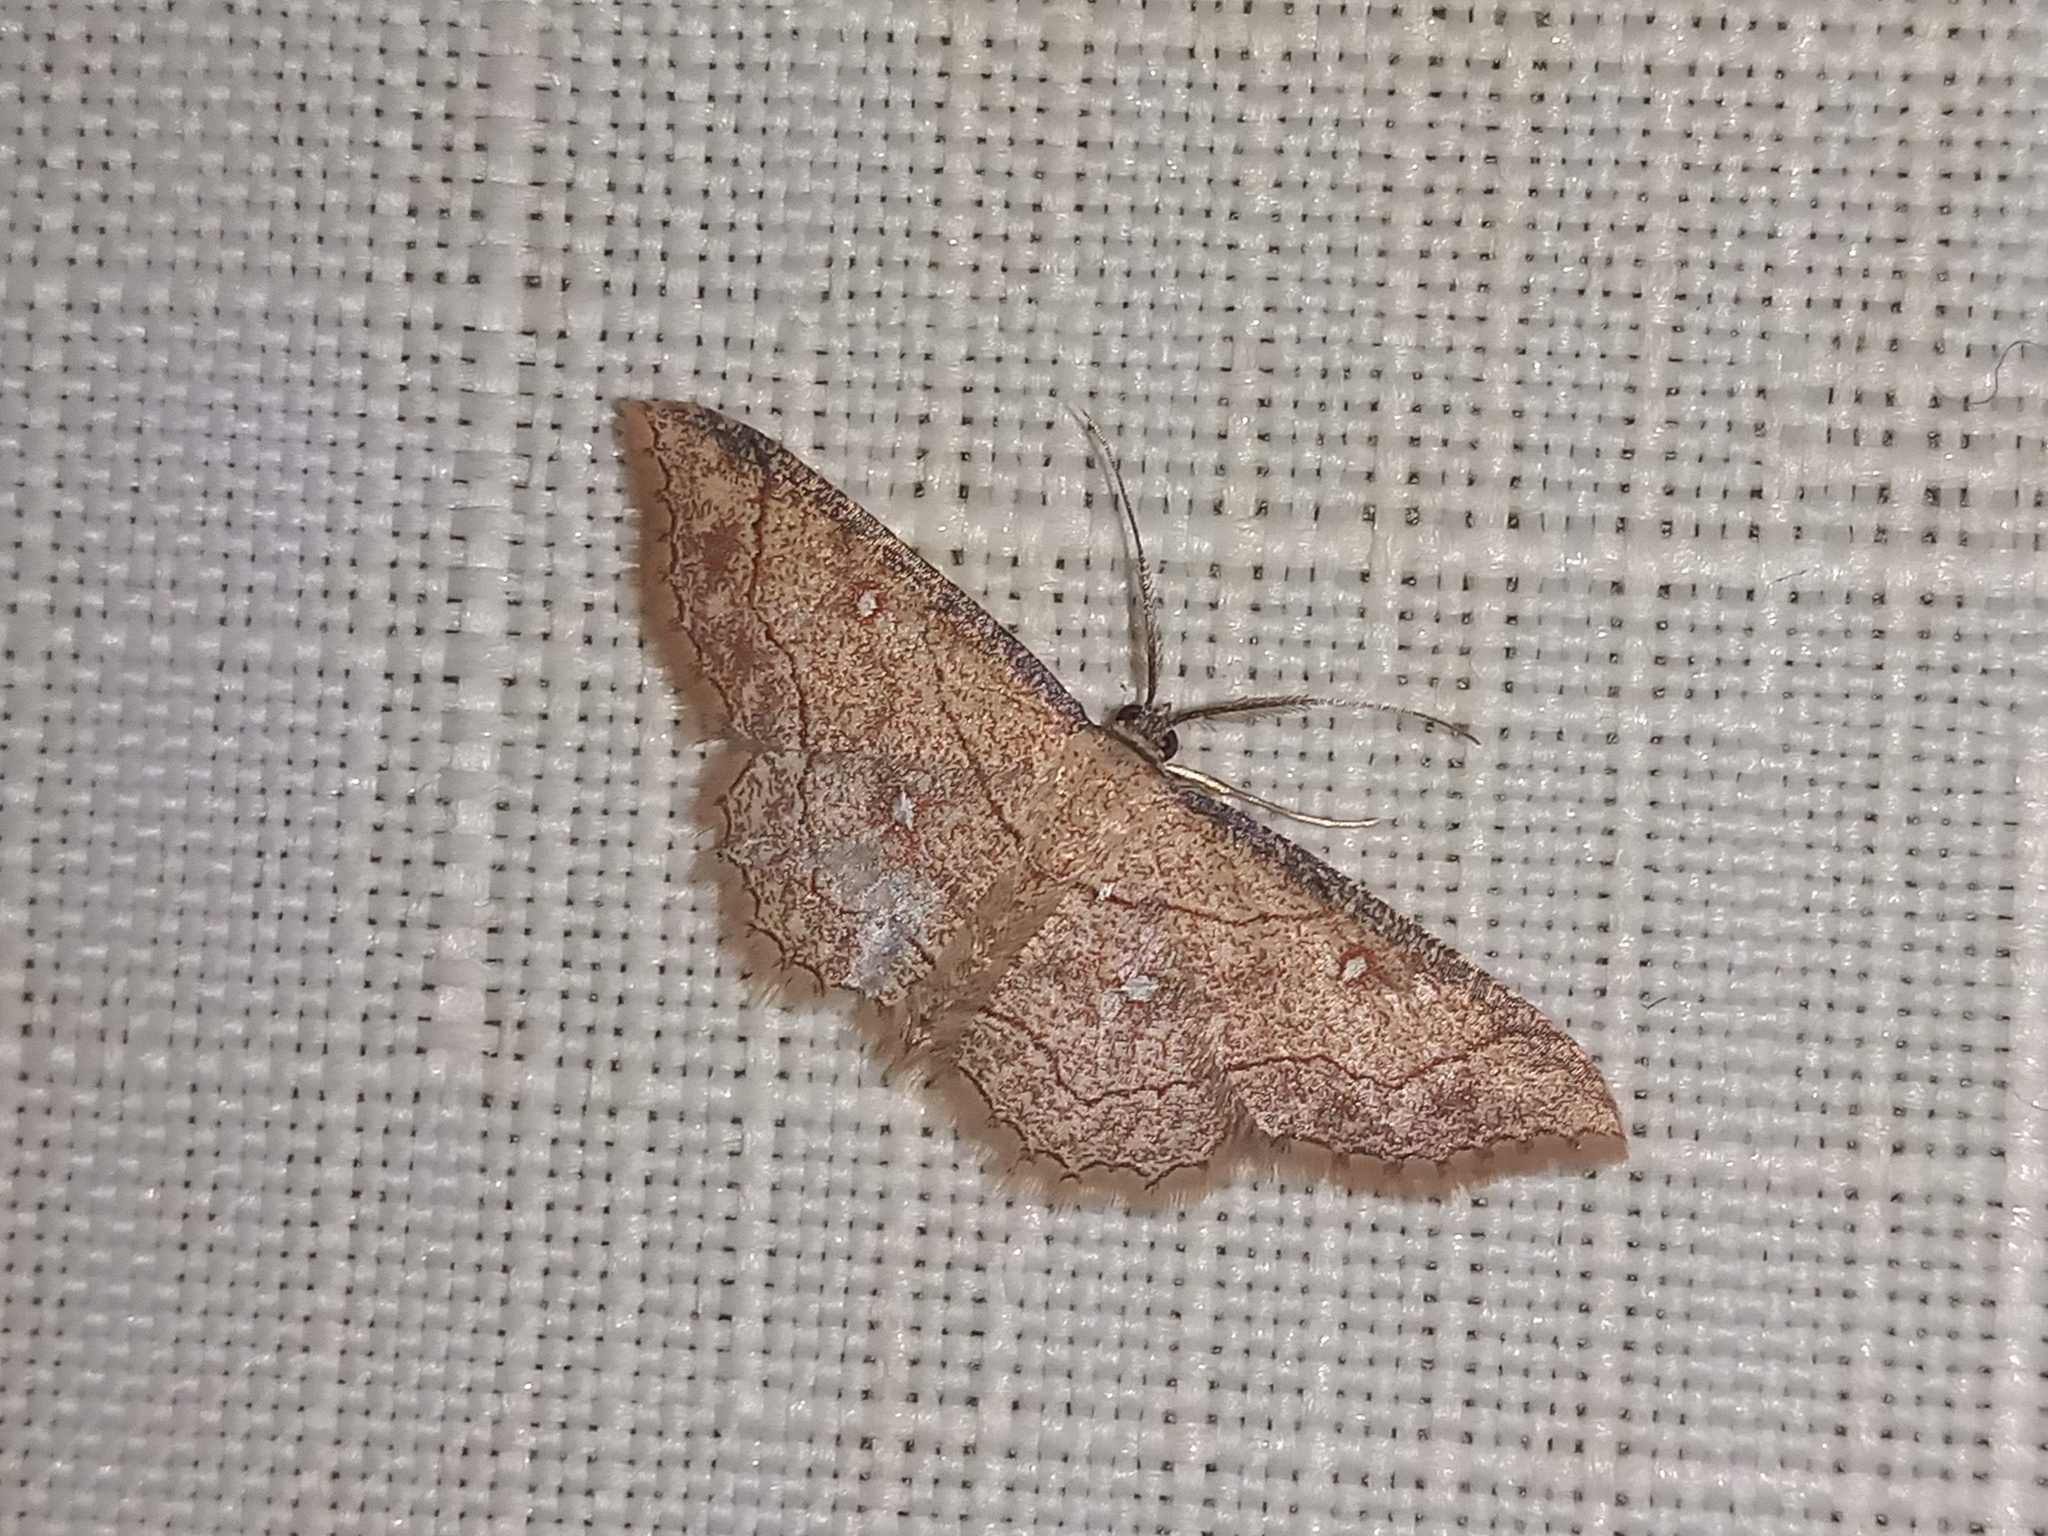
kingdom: Animalia
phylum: Arthropoda
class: Insecta
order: Lepidoptera
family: Geometridae
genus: Cyclophora
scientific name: Cyclophora coecaria
